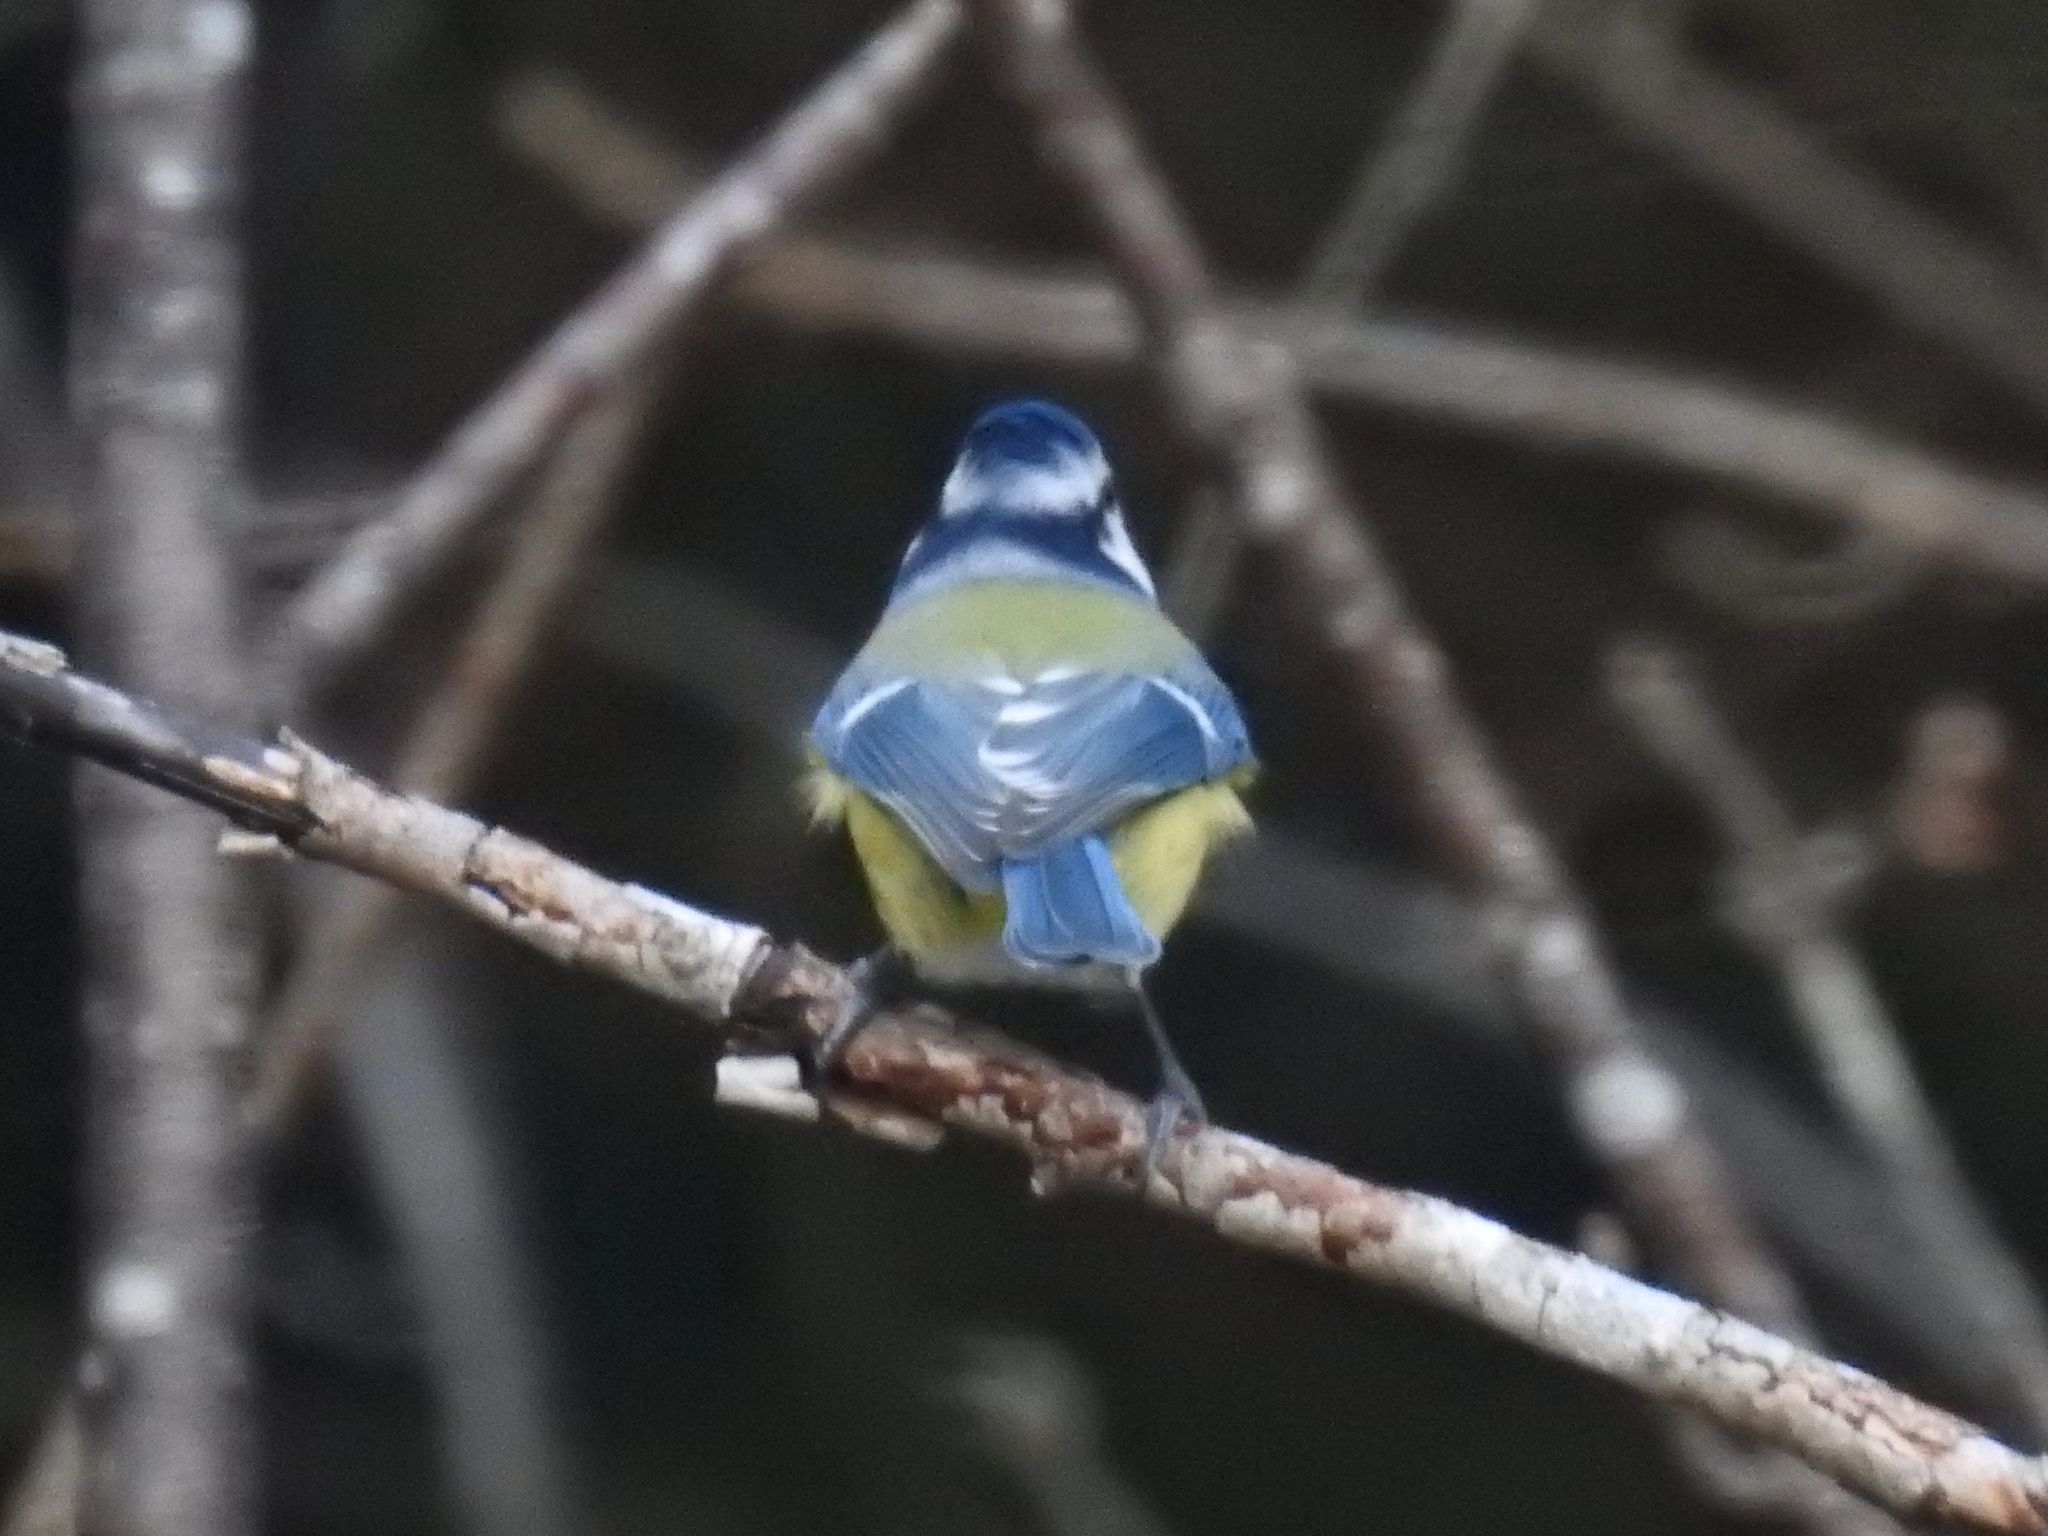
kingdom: Animalia
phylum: Chordata
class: Aves
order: Passeriformes
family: Paridae
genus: Cyanistes
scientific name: Cyanistes caeruleus
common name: Eurasian blue tit
